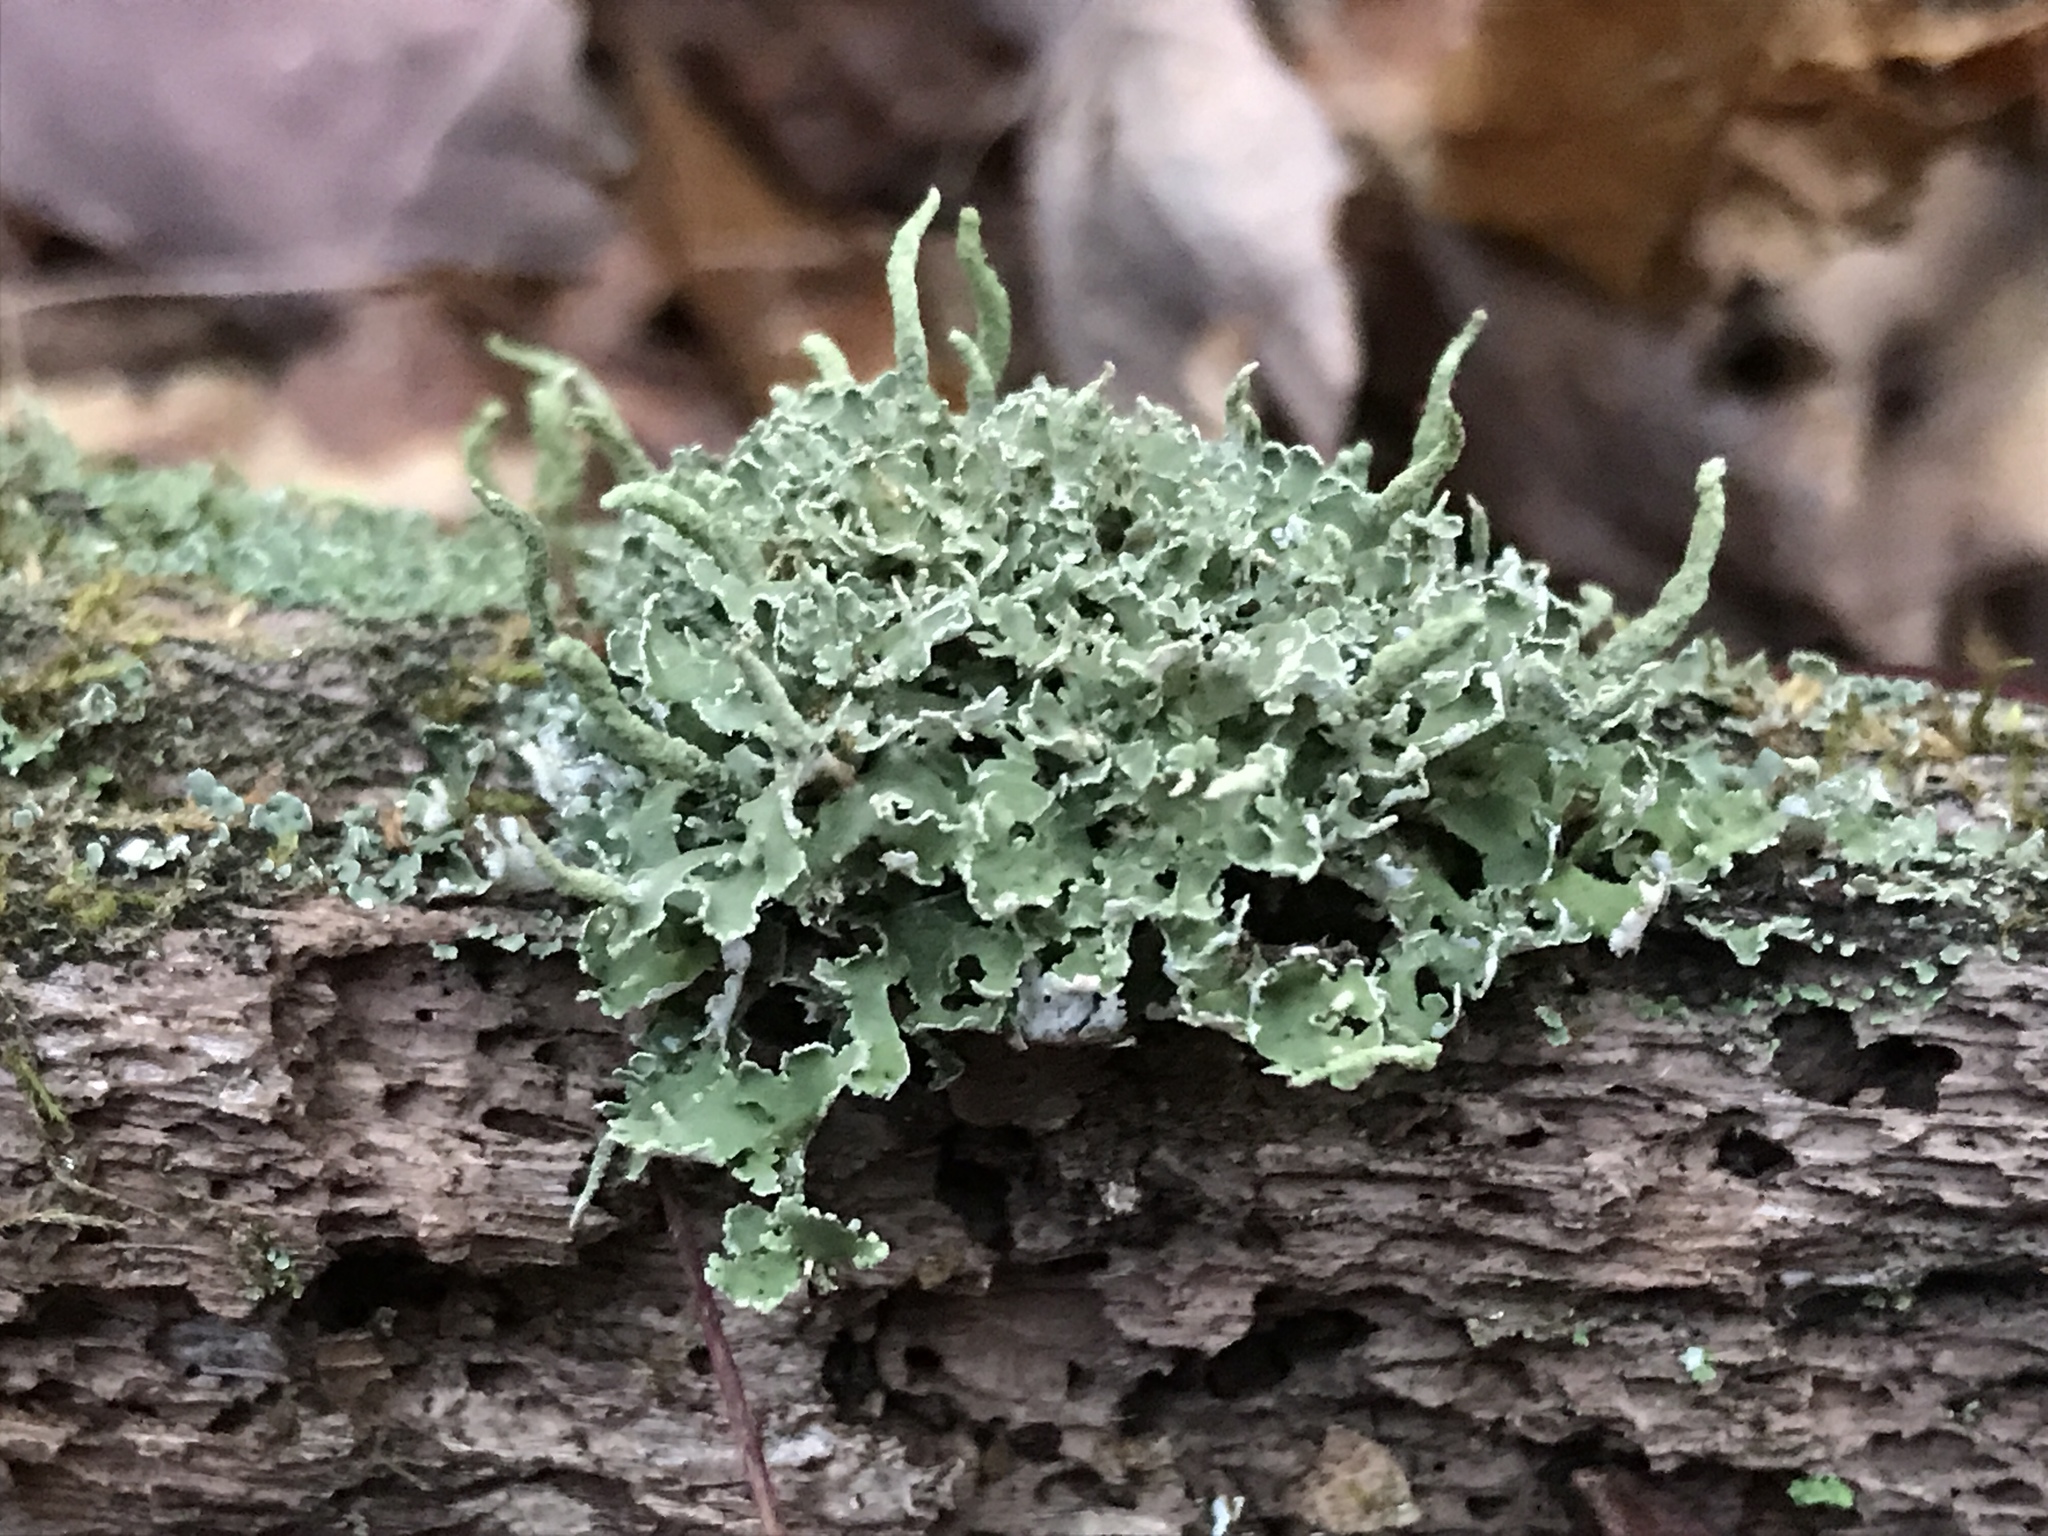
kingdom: Fungi
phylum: Ascomycota
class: Lecanoromycetes
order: Lecanorales
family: Cladoniaceae
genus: Cladonia
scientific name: Cladonia coniocraea
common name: Common powderhorn
